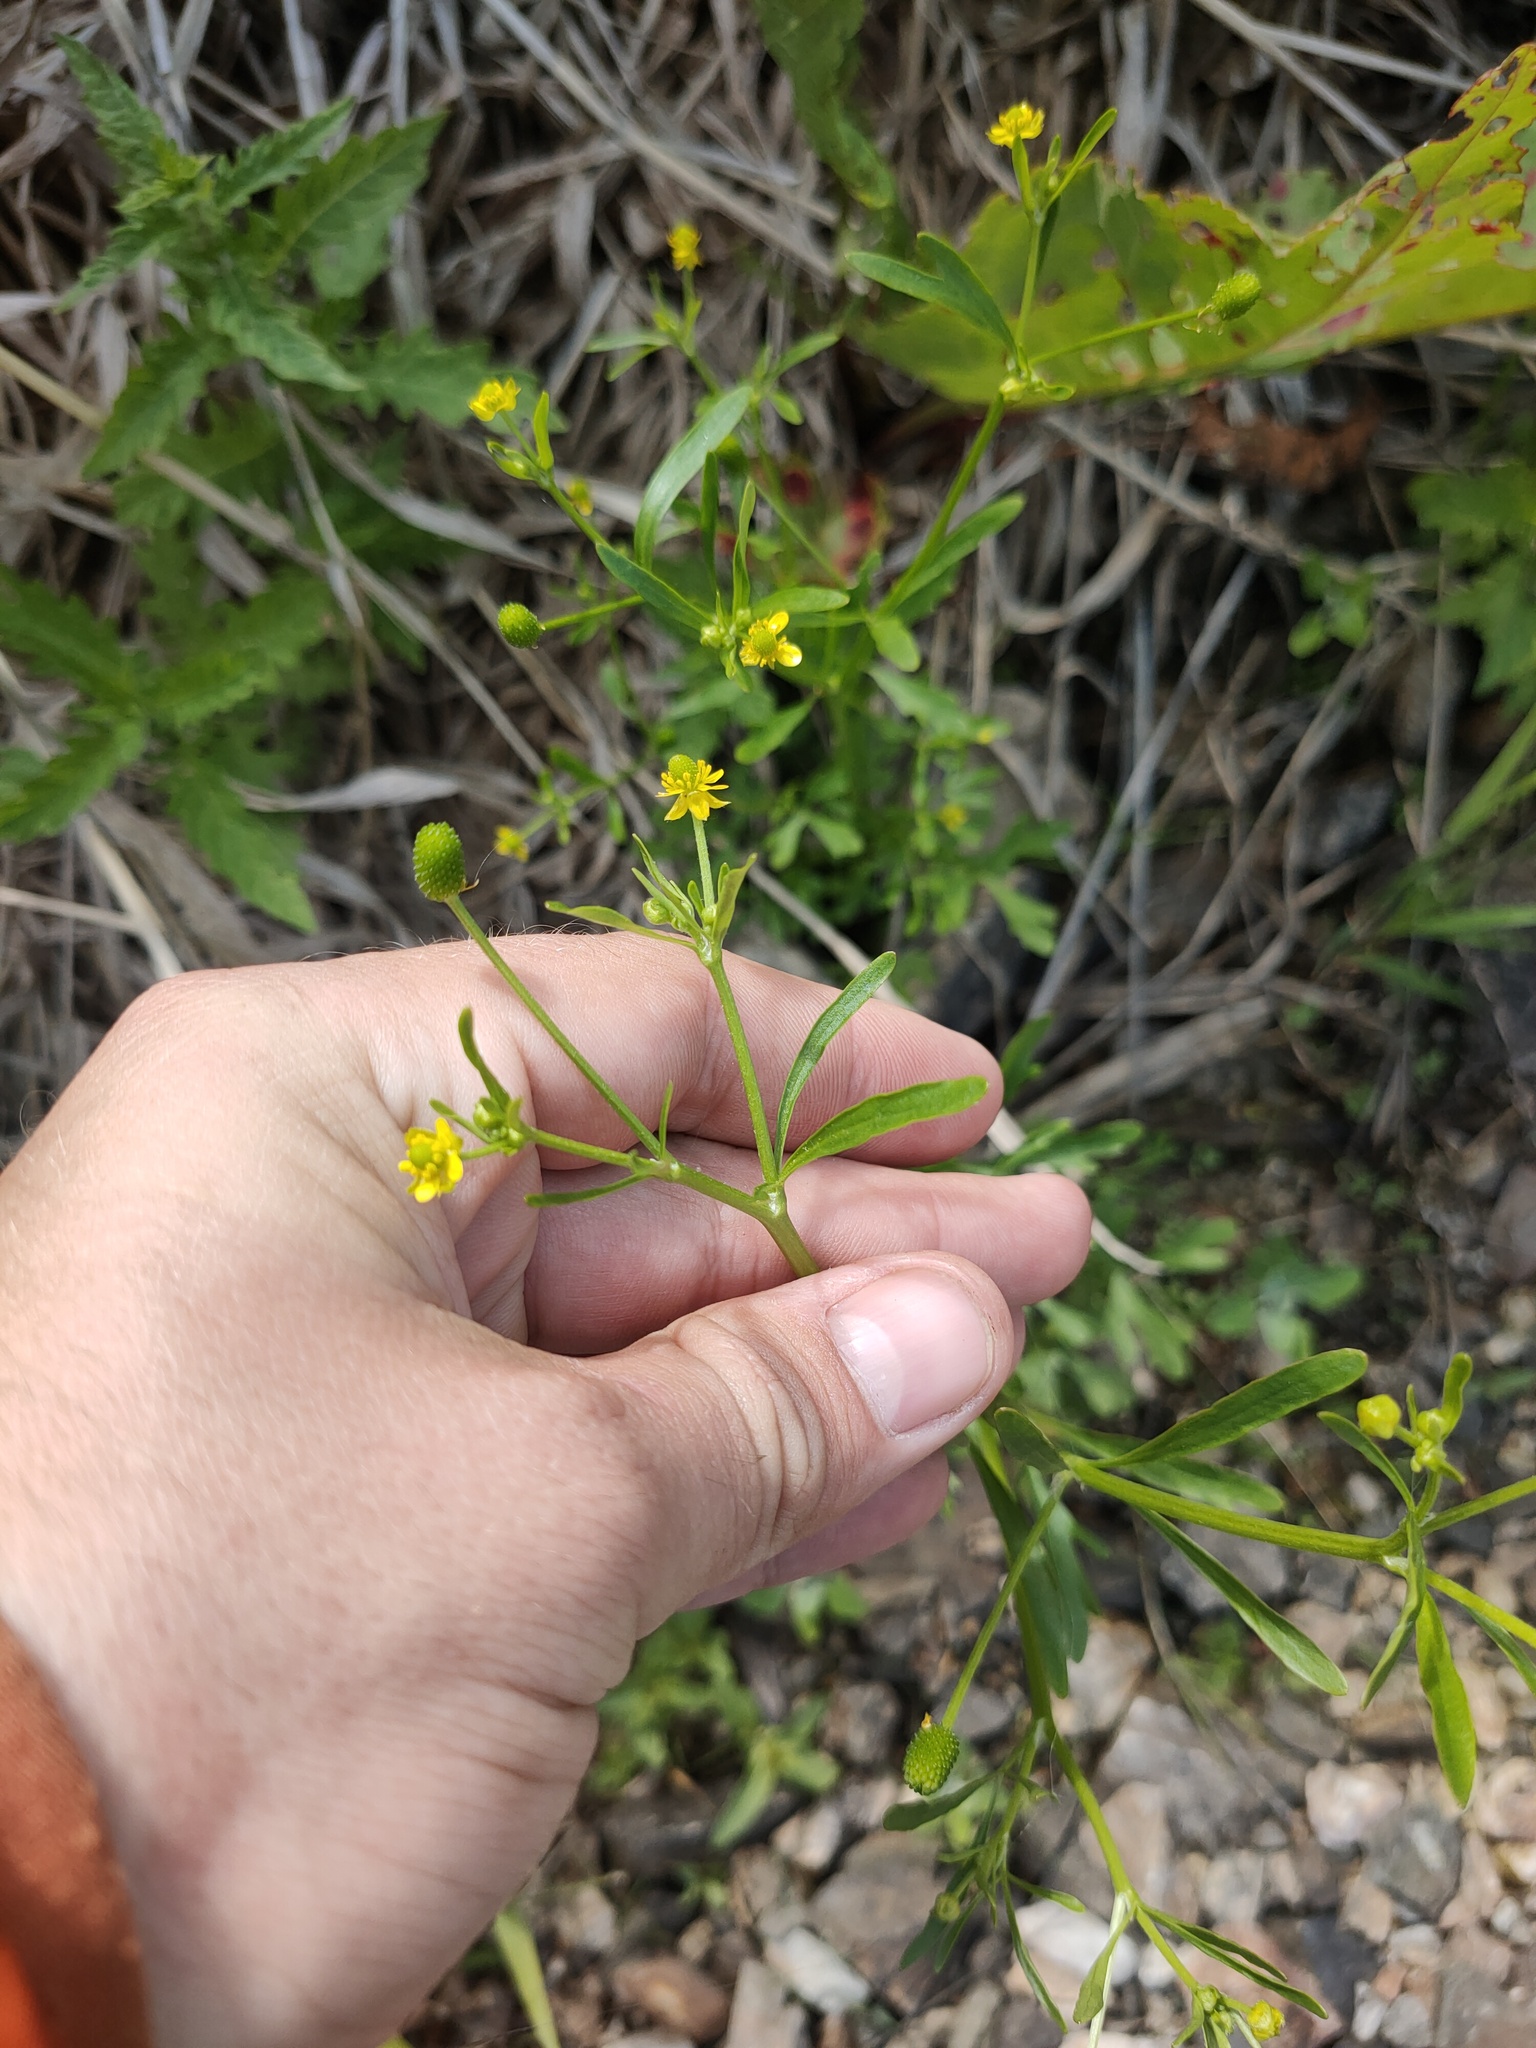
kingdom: Plantae
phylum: Tracheophyta
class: Magnoliopsida
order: Ranunculales
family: Ranunculaceae
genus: Ranunculus
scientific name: Ranunculus sceleratus
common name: Celery-leaved buttercup
